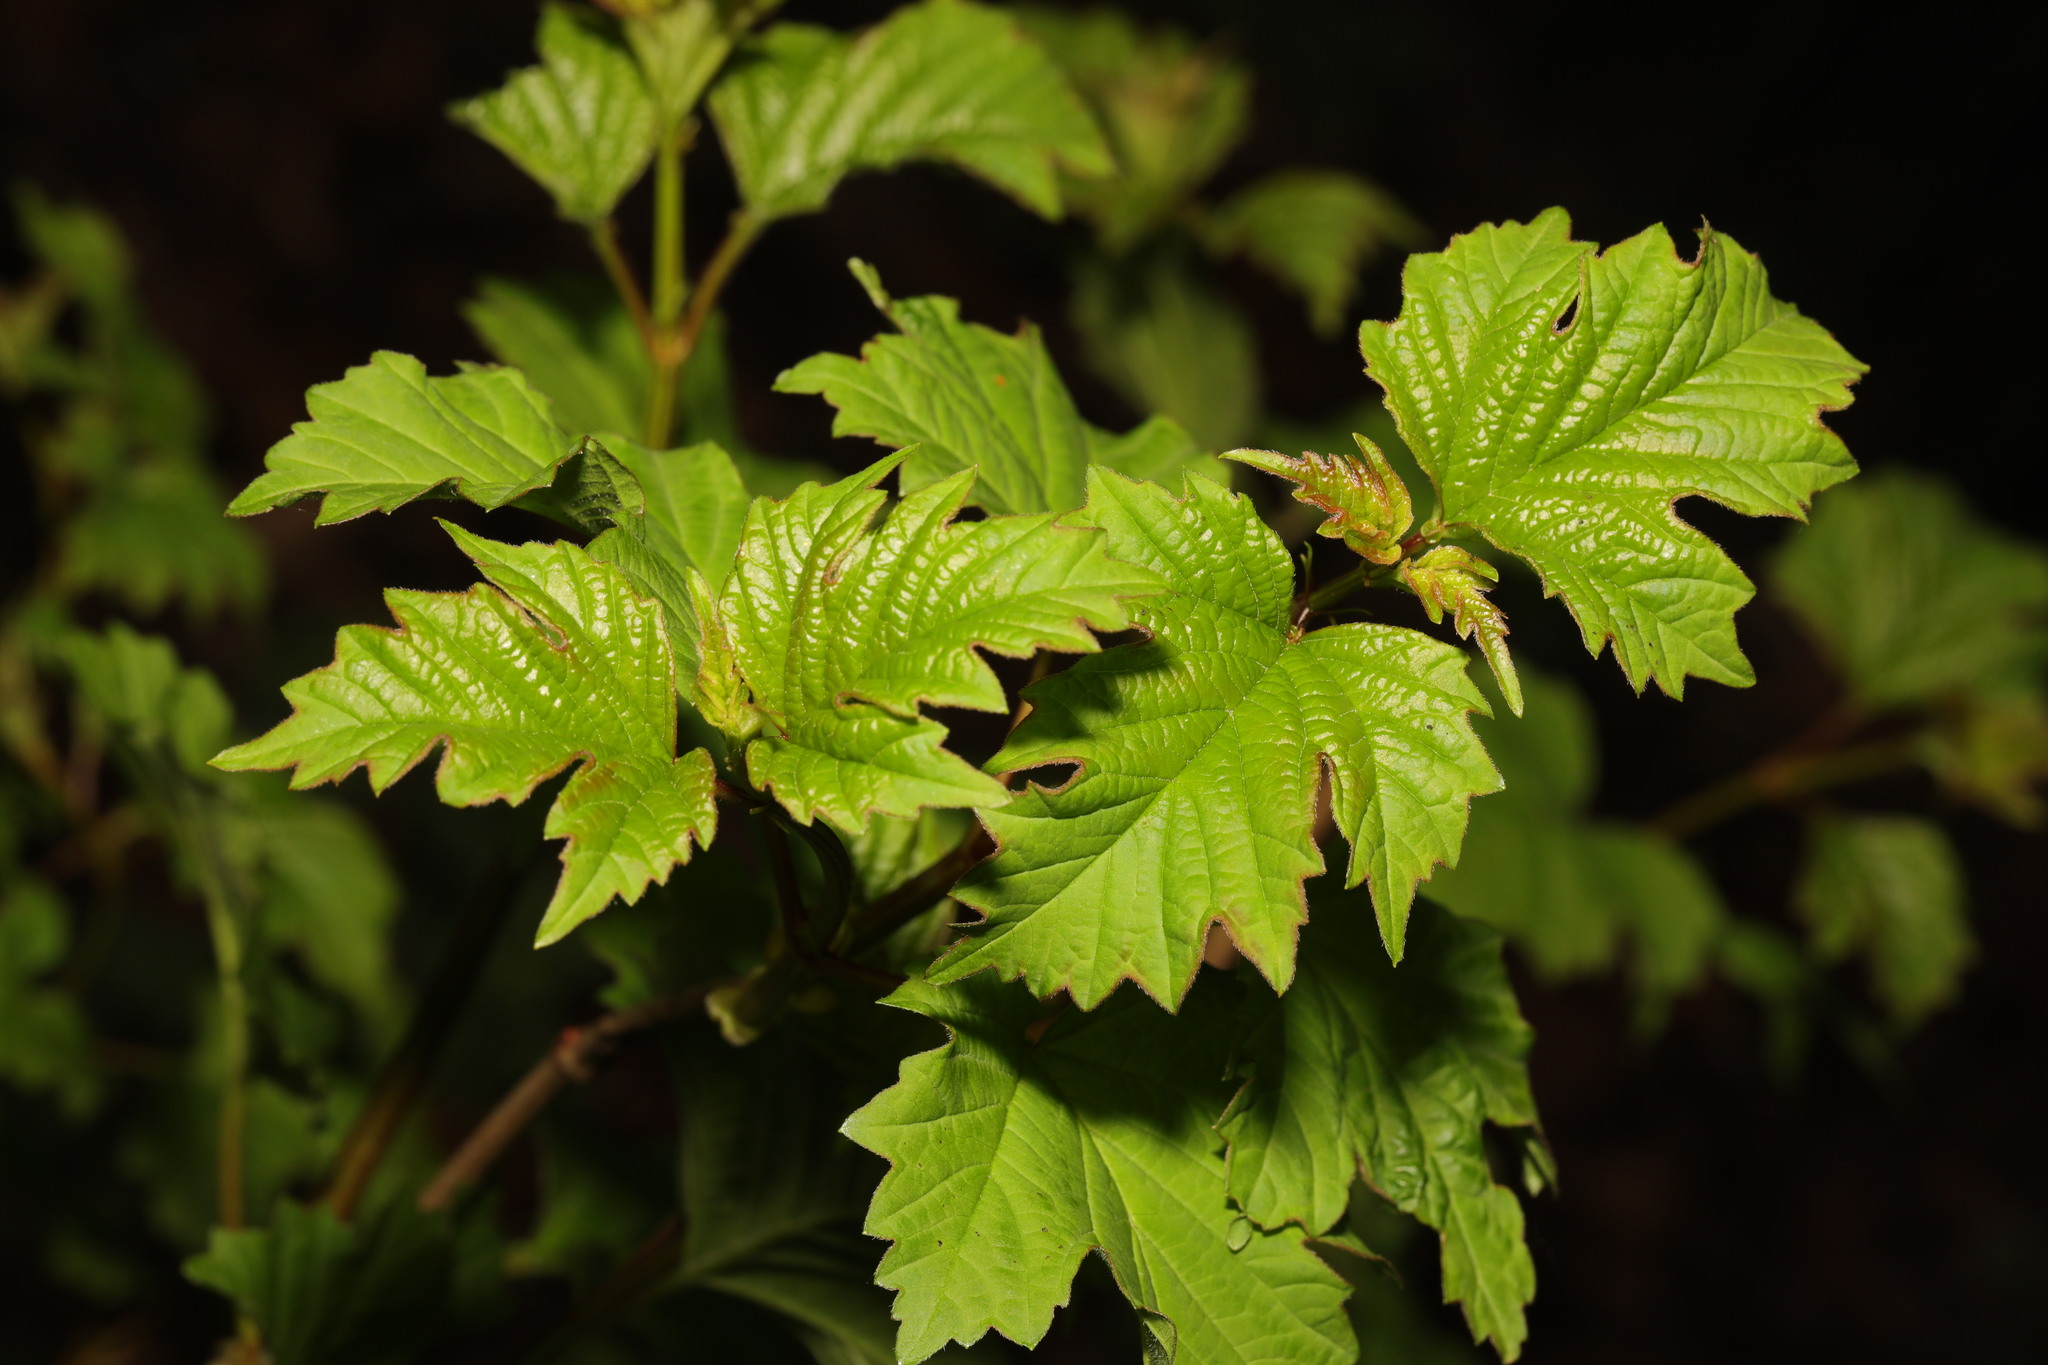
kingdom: Plantae
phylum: Tracheophyta
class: Magnoliopsida
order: Dipsacales
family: Viburnaceae
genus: Viburnum
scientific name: Viburnum opulus
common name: Guelder-rose
